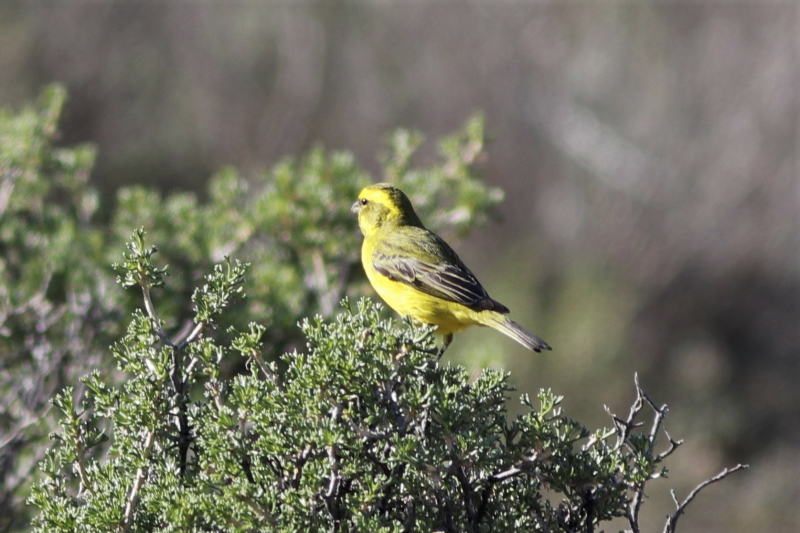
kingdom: Animalia
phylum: Chordata
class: Aves
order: Passeriformes
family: Fringillidae
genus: Crithagra
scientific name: Crithagra flaviventris
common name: Yellow canary
